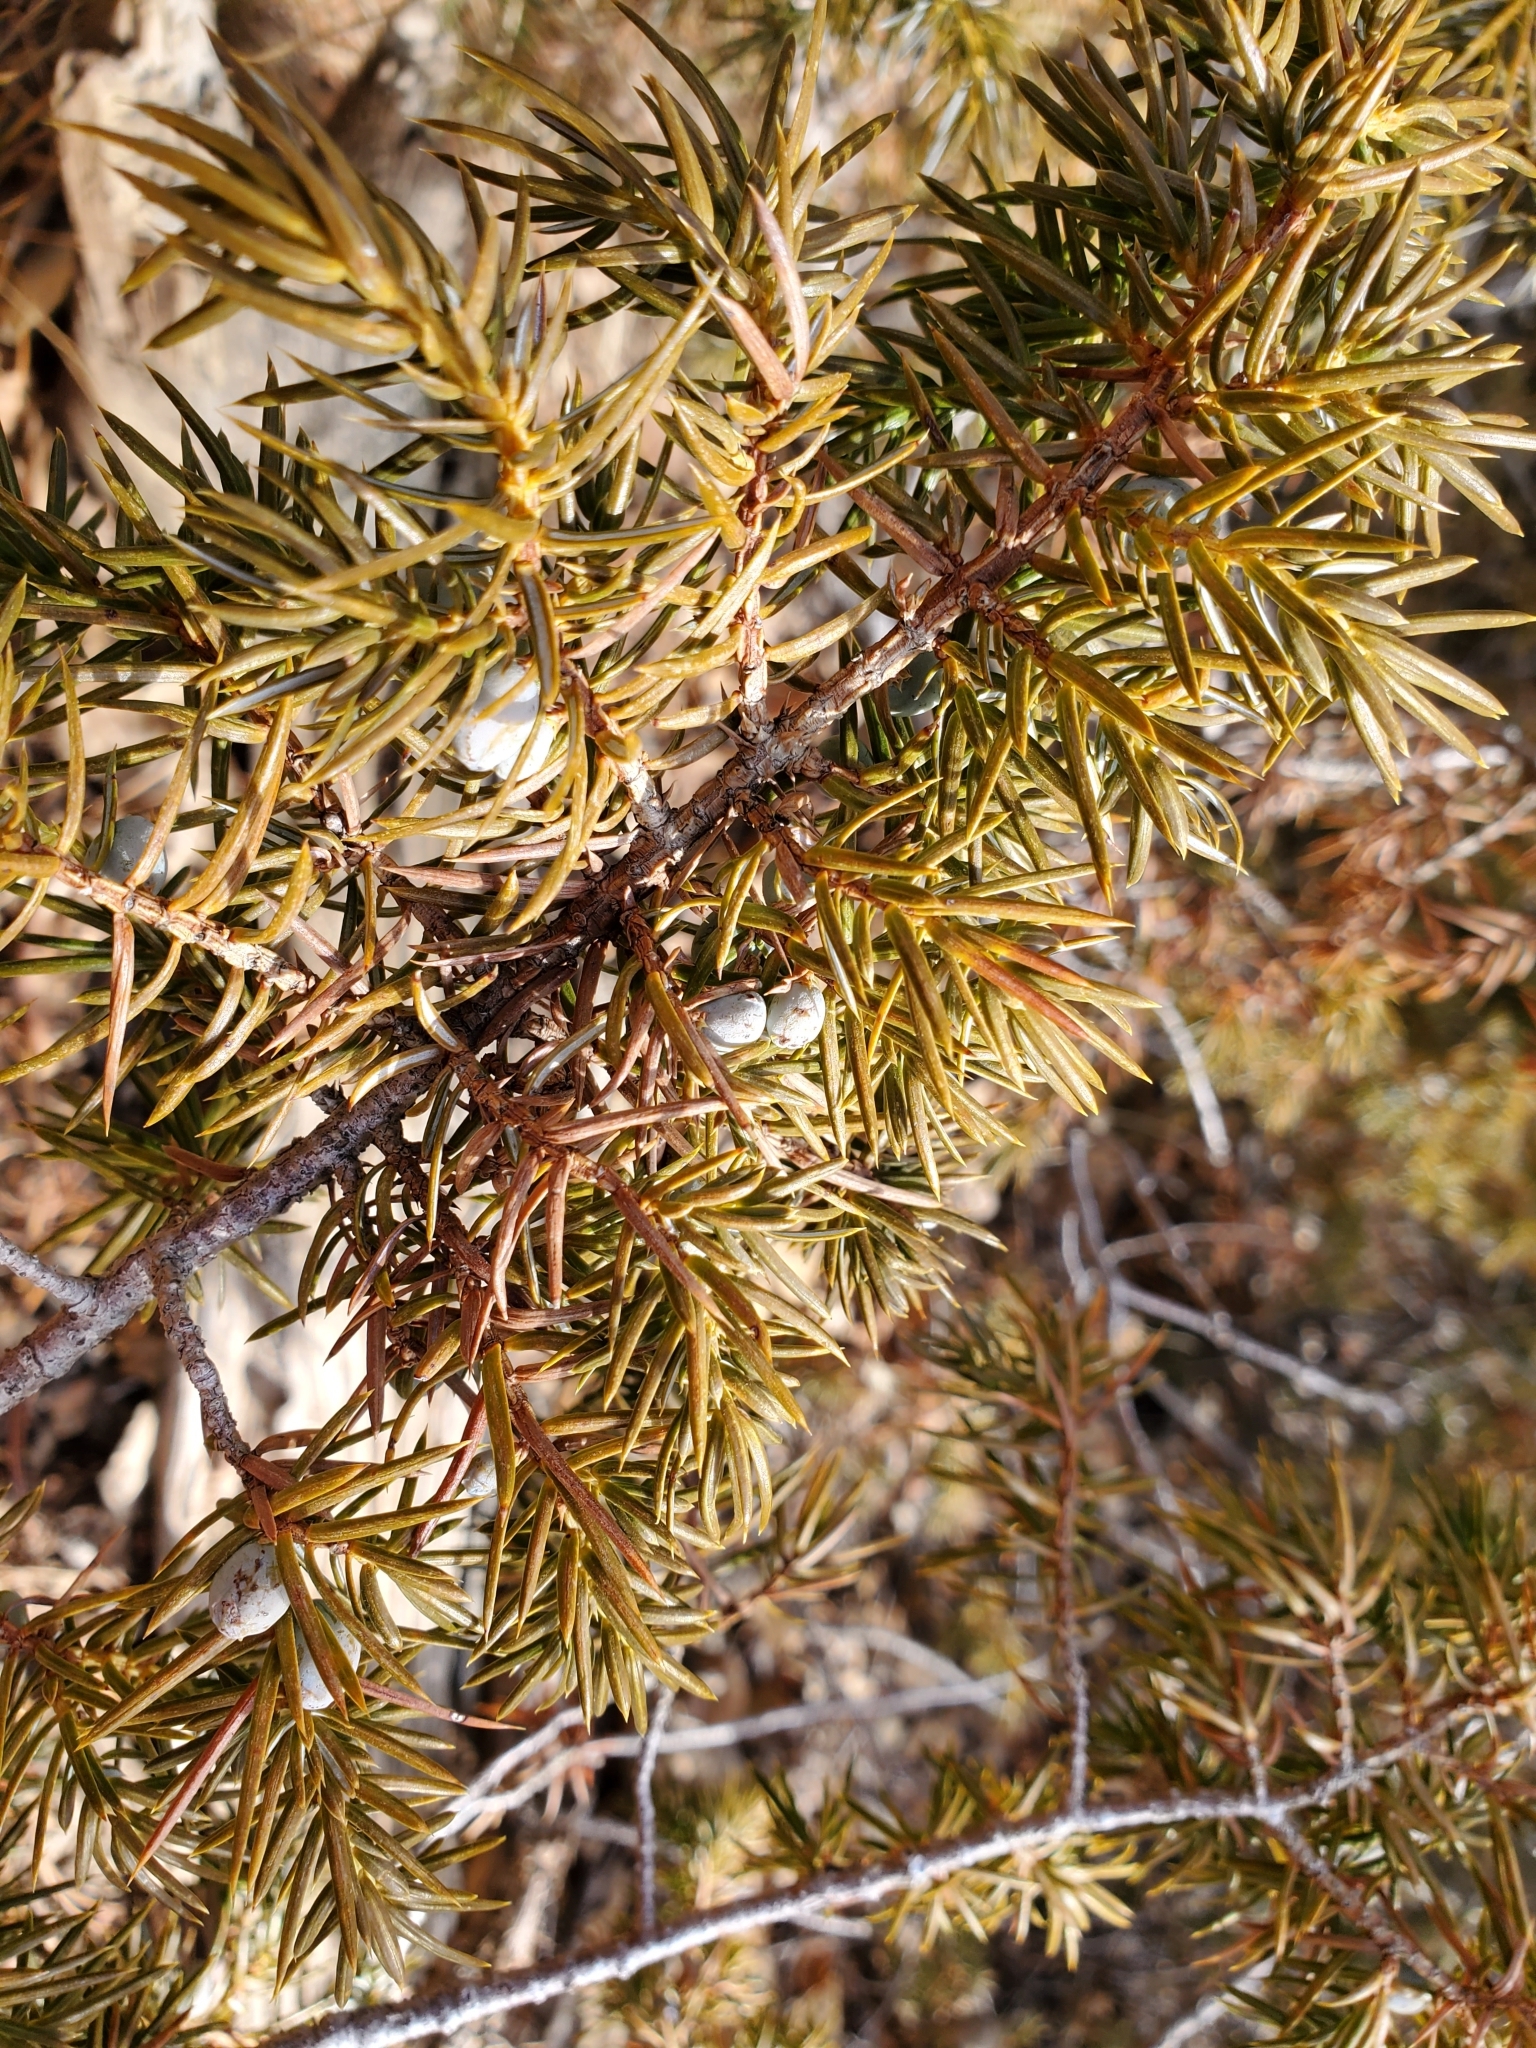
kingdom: Plantae
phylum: Tracheophyta
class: Pinopsida
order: Pinales
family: Cupressaceae
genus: Juniperus
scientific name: Juniperus communis
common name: Common juniper
